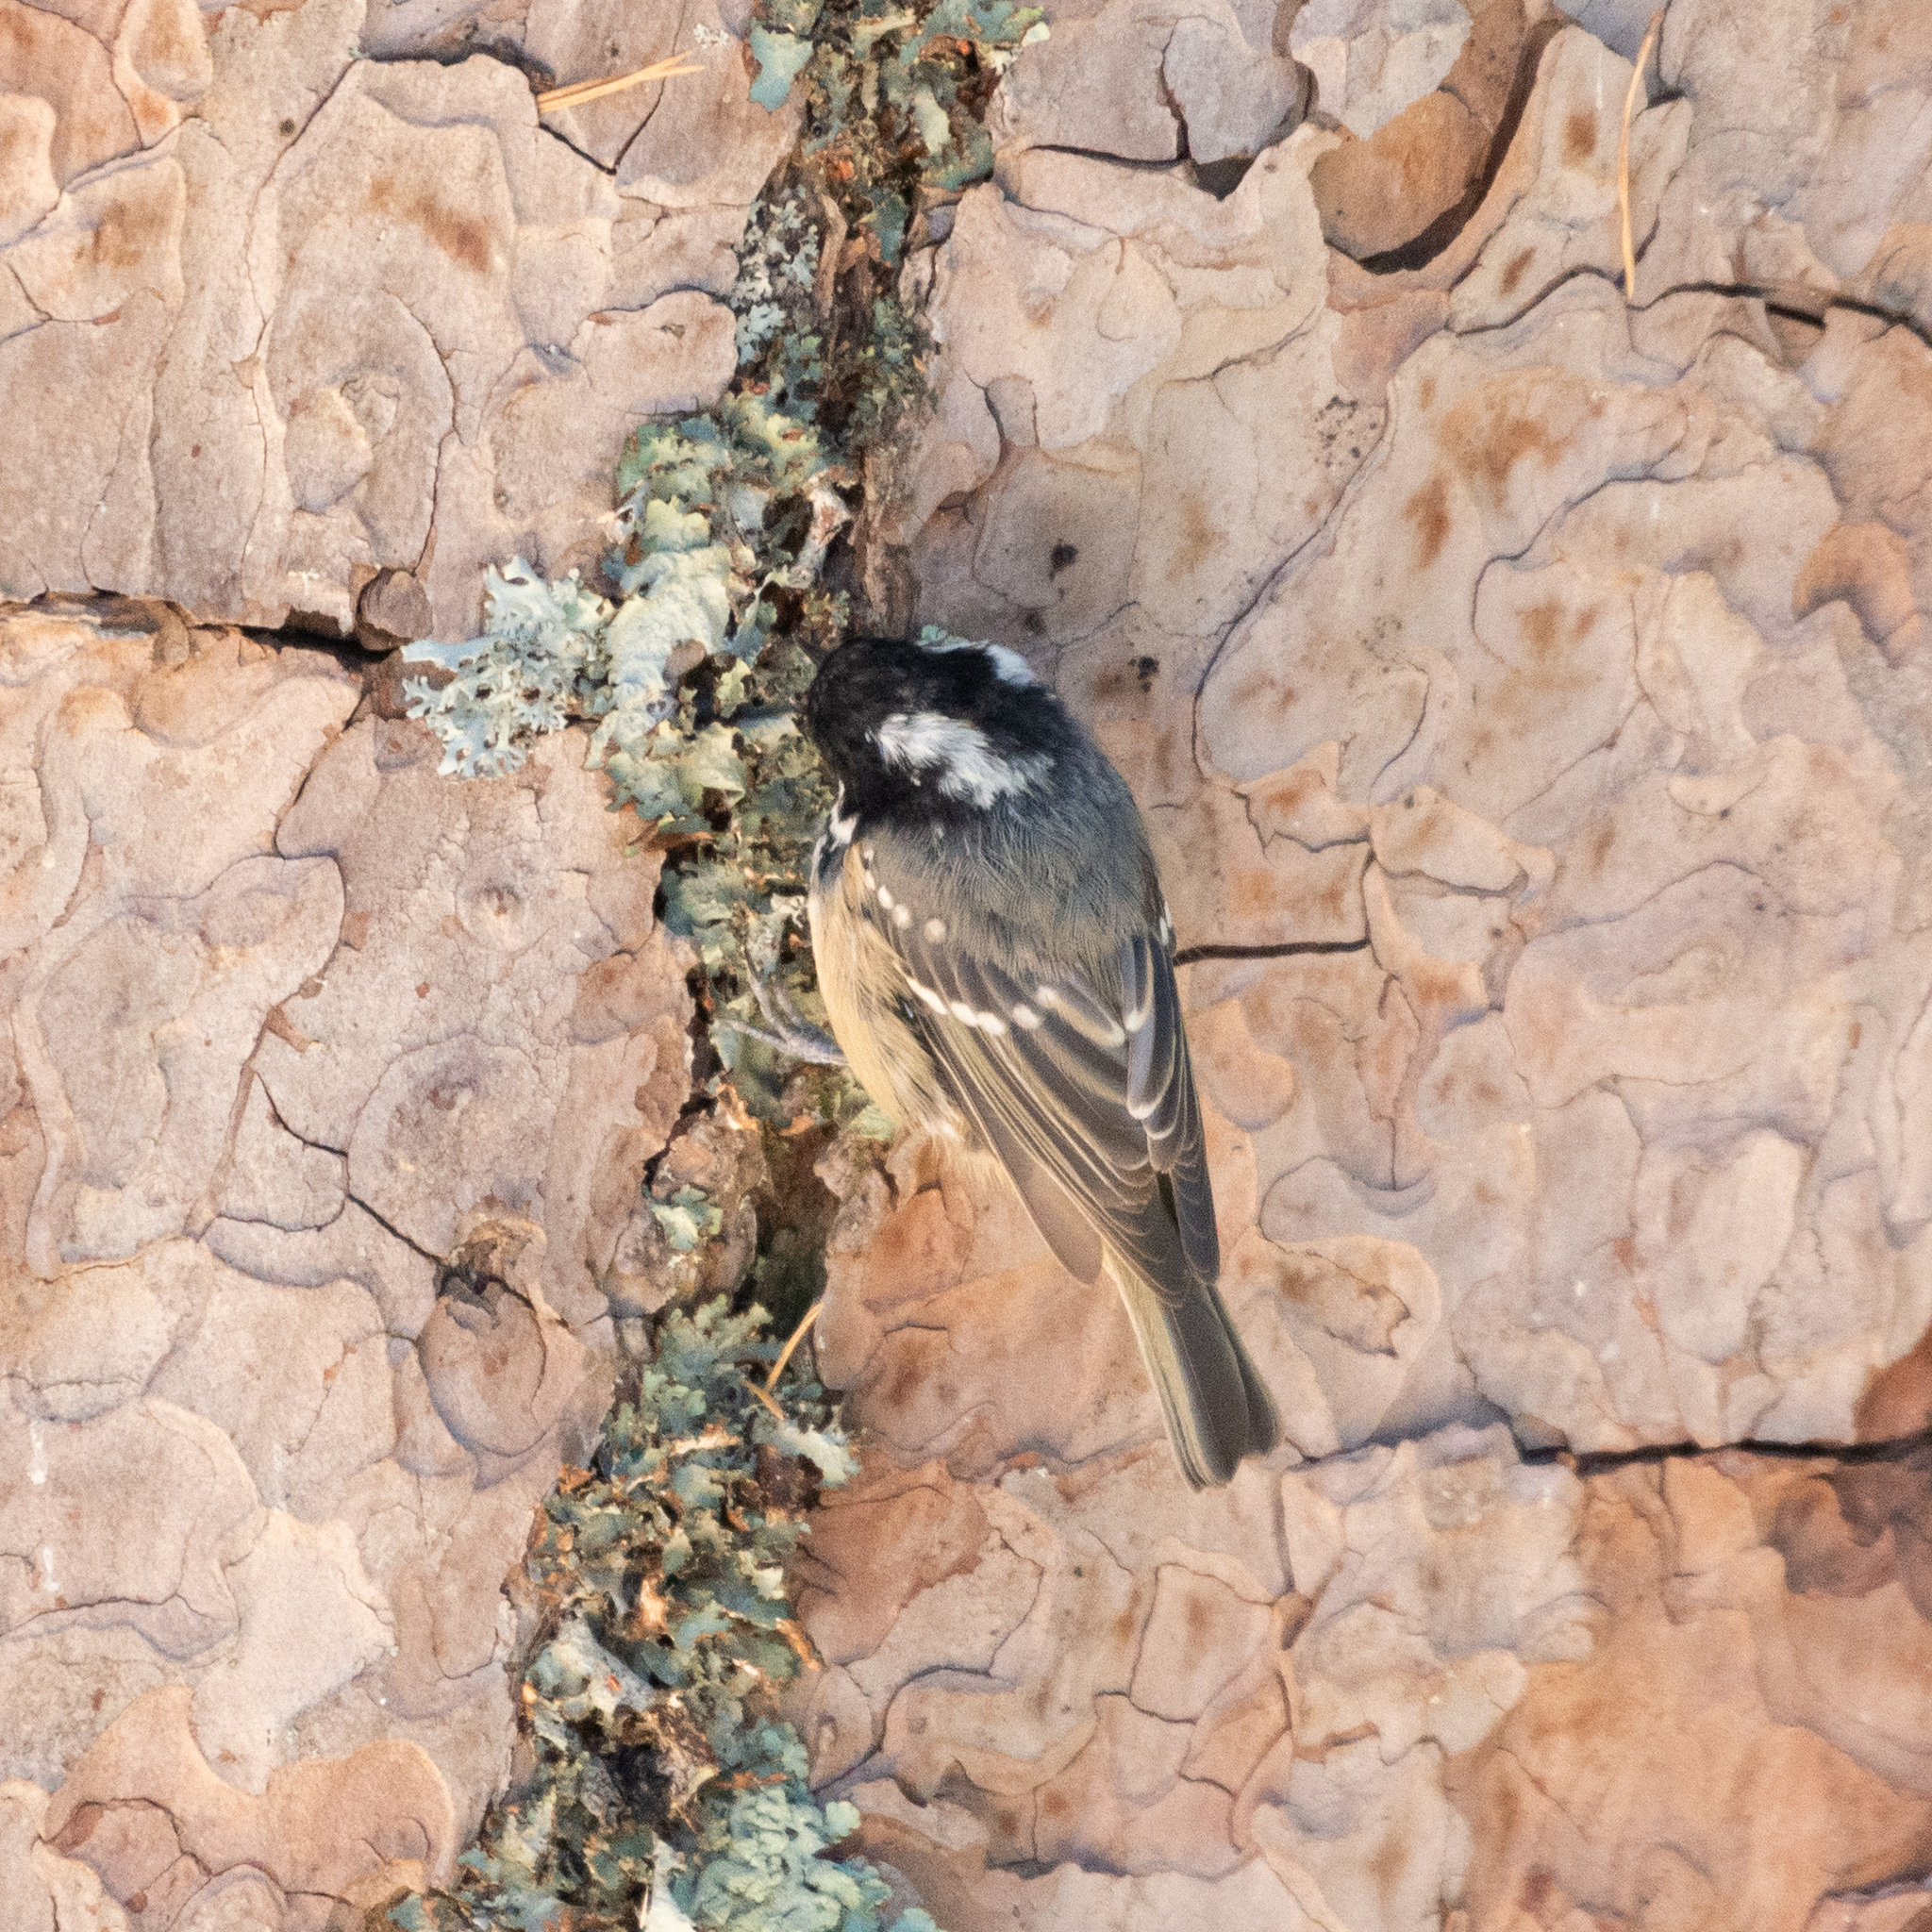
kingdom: Animalia
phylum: Chordata
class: Aves
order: Passeriformes
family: Paridae
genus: Periparus
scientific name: Periparus ater
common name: Coal tit
